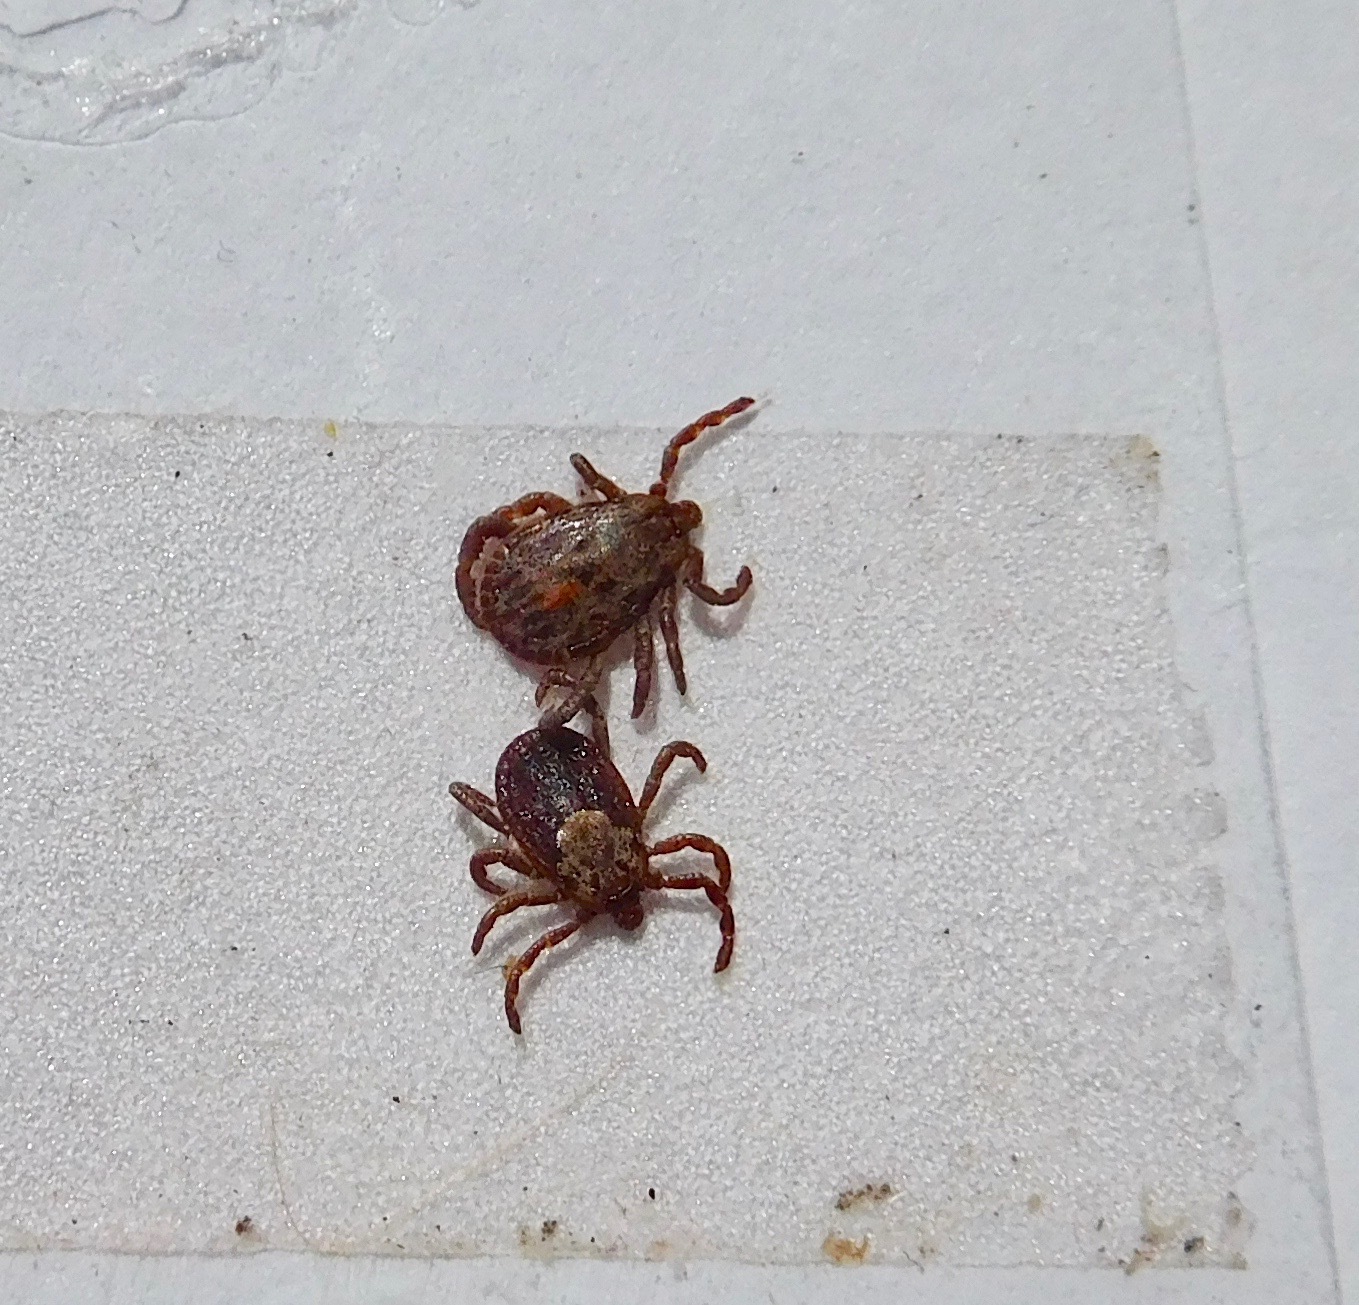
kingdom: Animalia
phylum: Arthropoda
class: Arachnida
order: Ixodida
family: Ixodidae
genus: Dermacentor
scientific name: Dermacentor occidentalis
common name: Net tick
